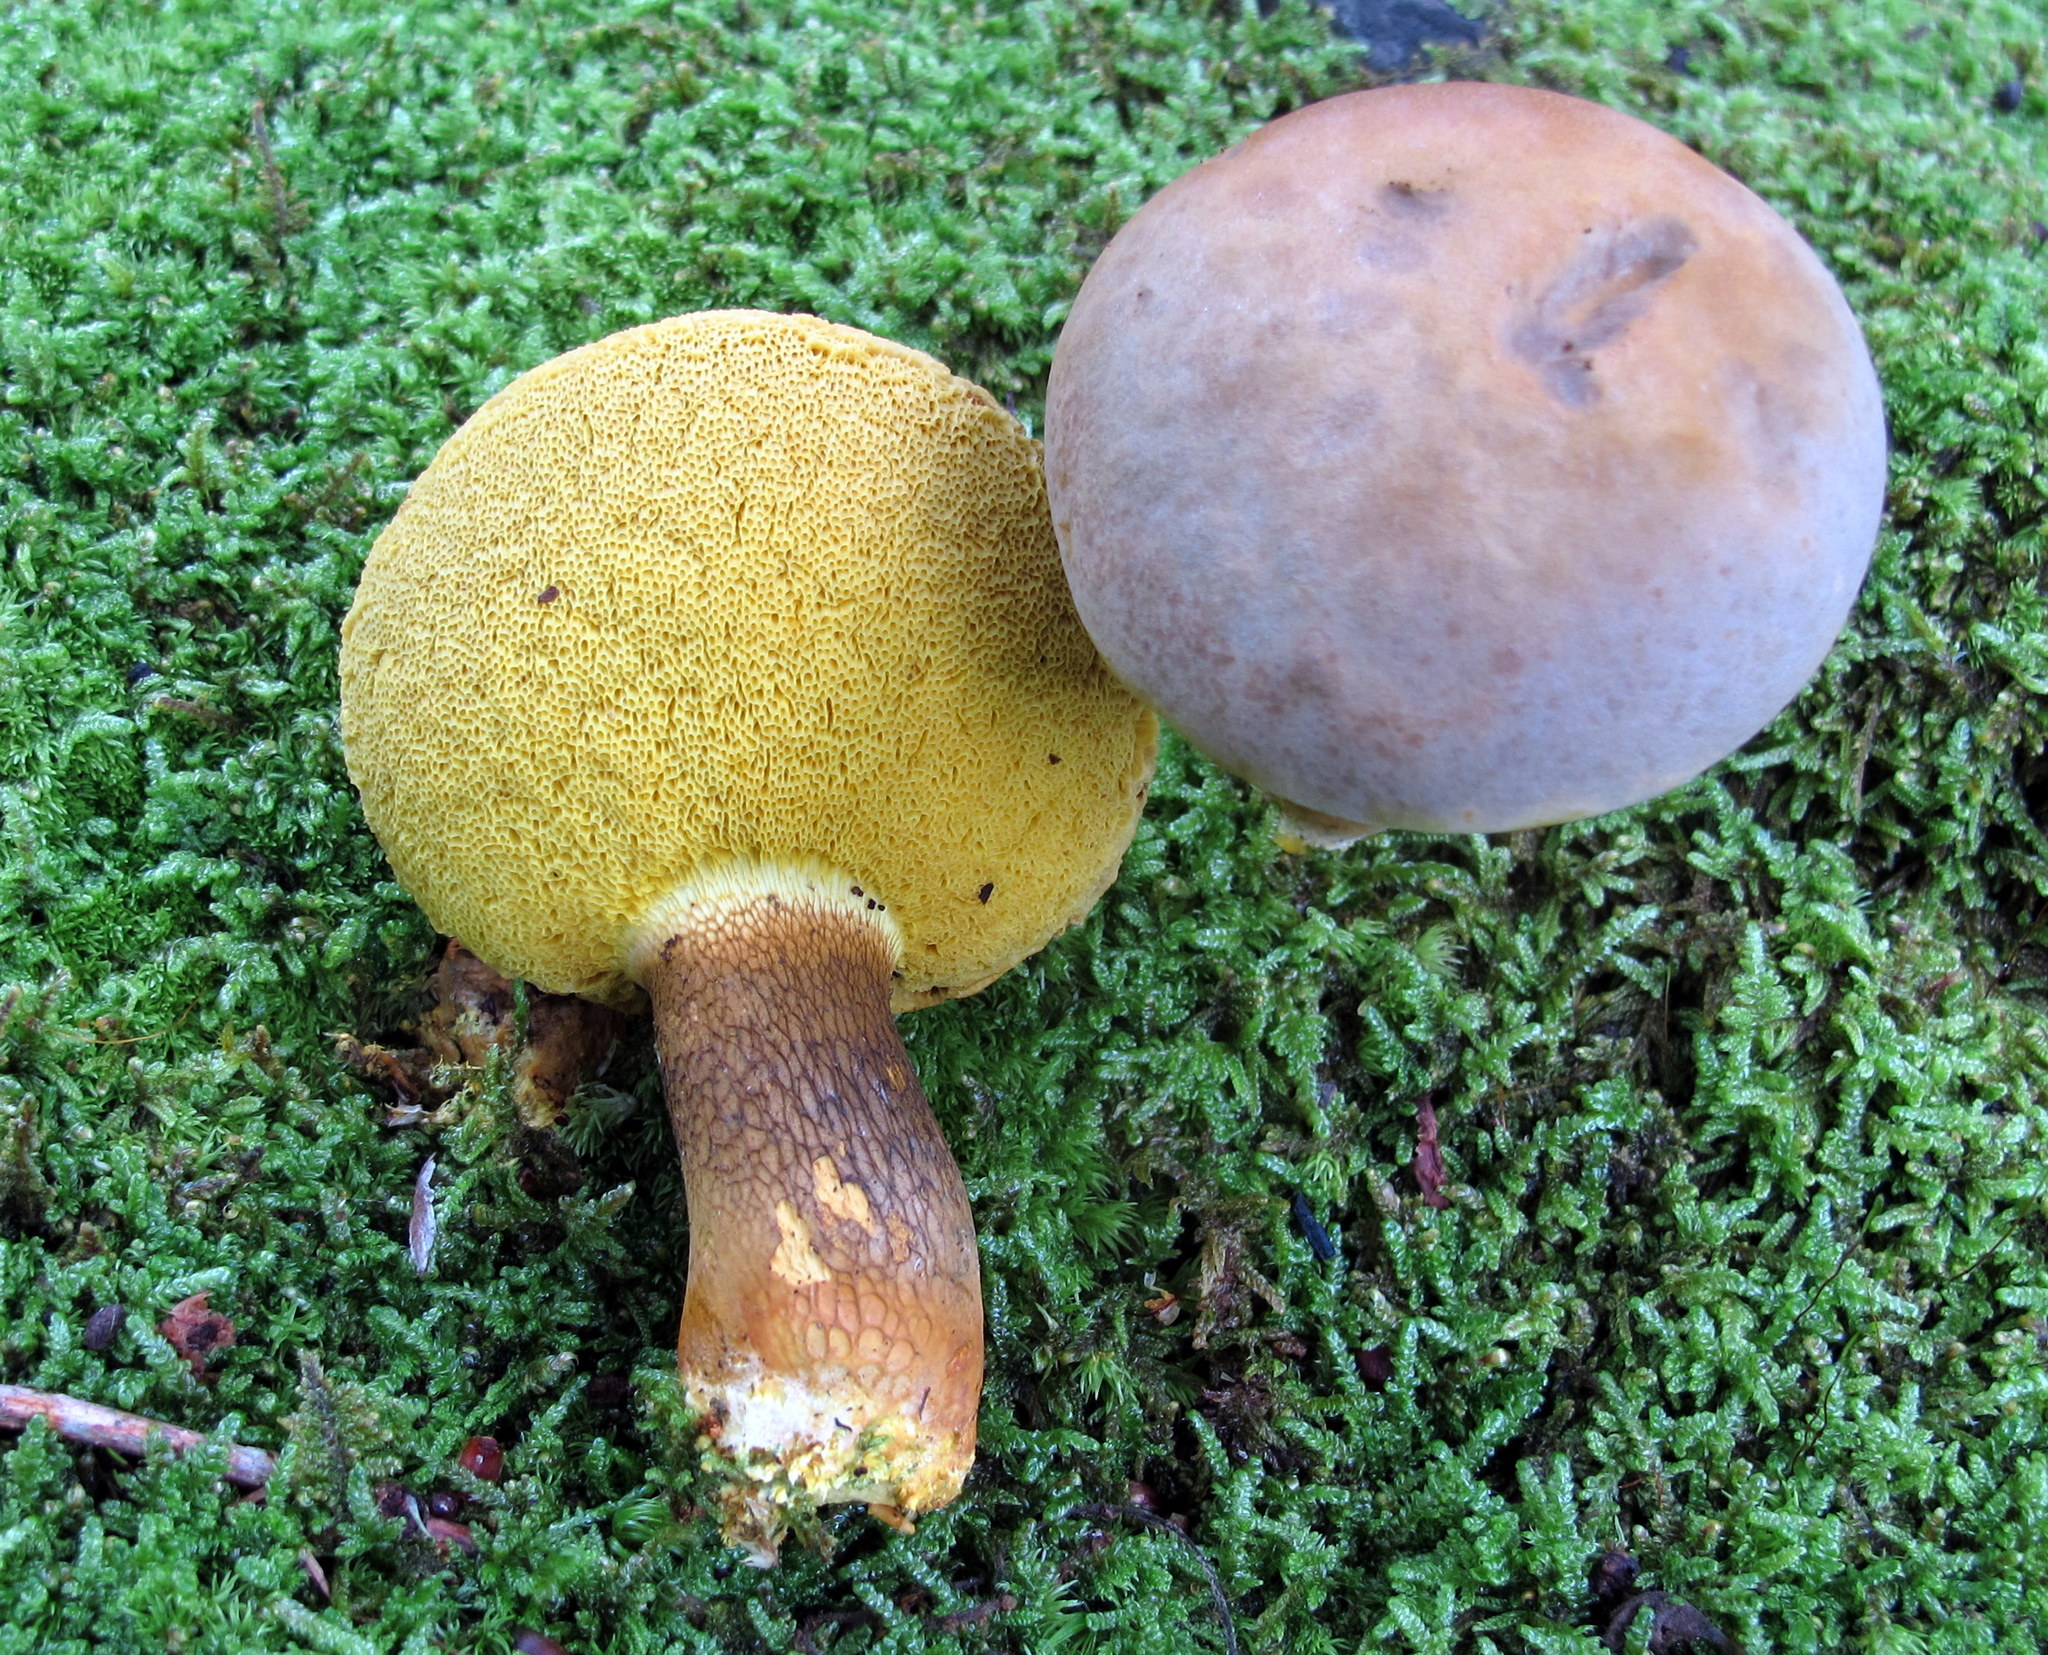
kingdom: Fungi
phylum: Basidiomycota
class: Agaricomycetes
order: Boletales
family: Boletaceae
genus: Retiboletus
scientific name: Retiboletus ornatipes
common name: Ornate-stalked bolete
